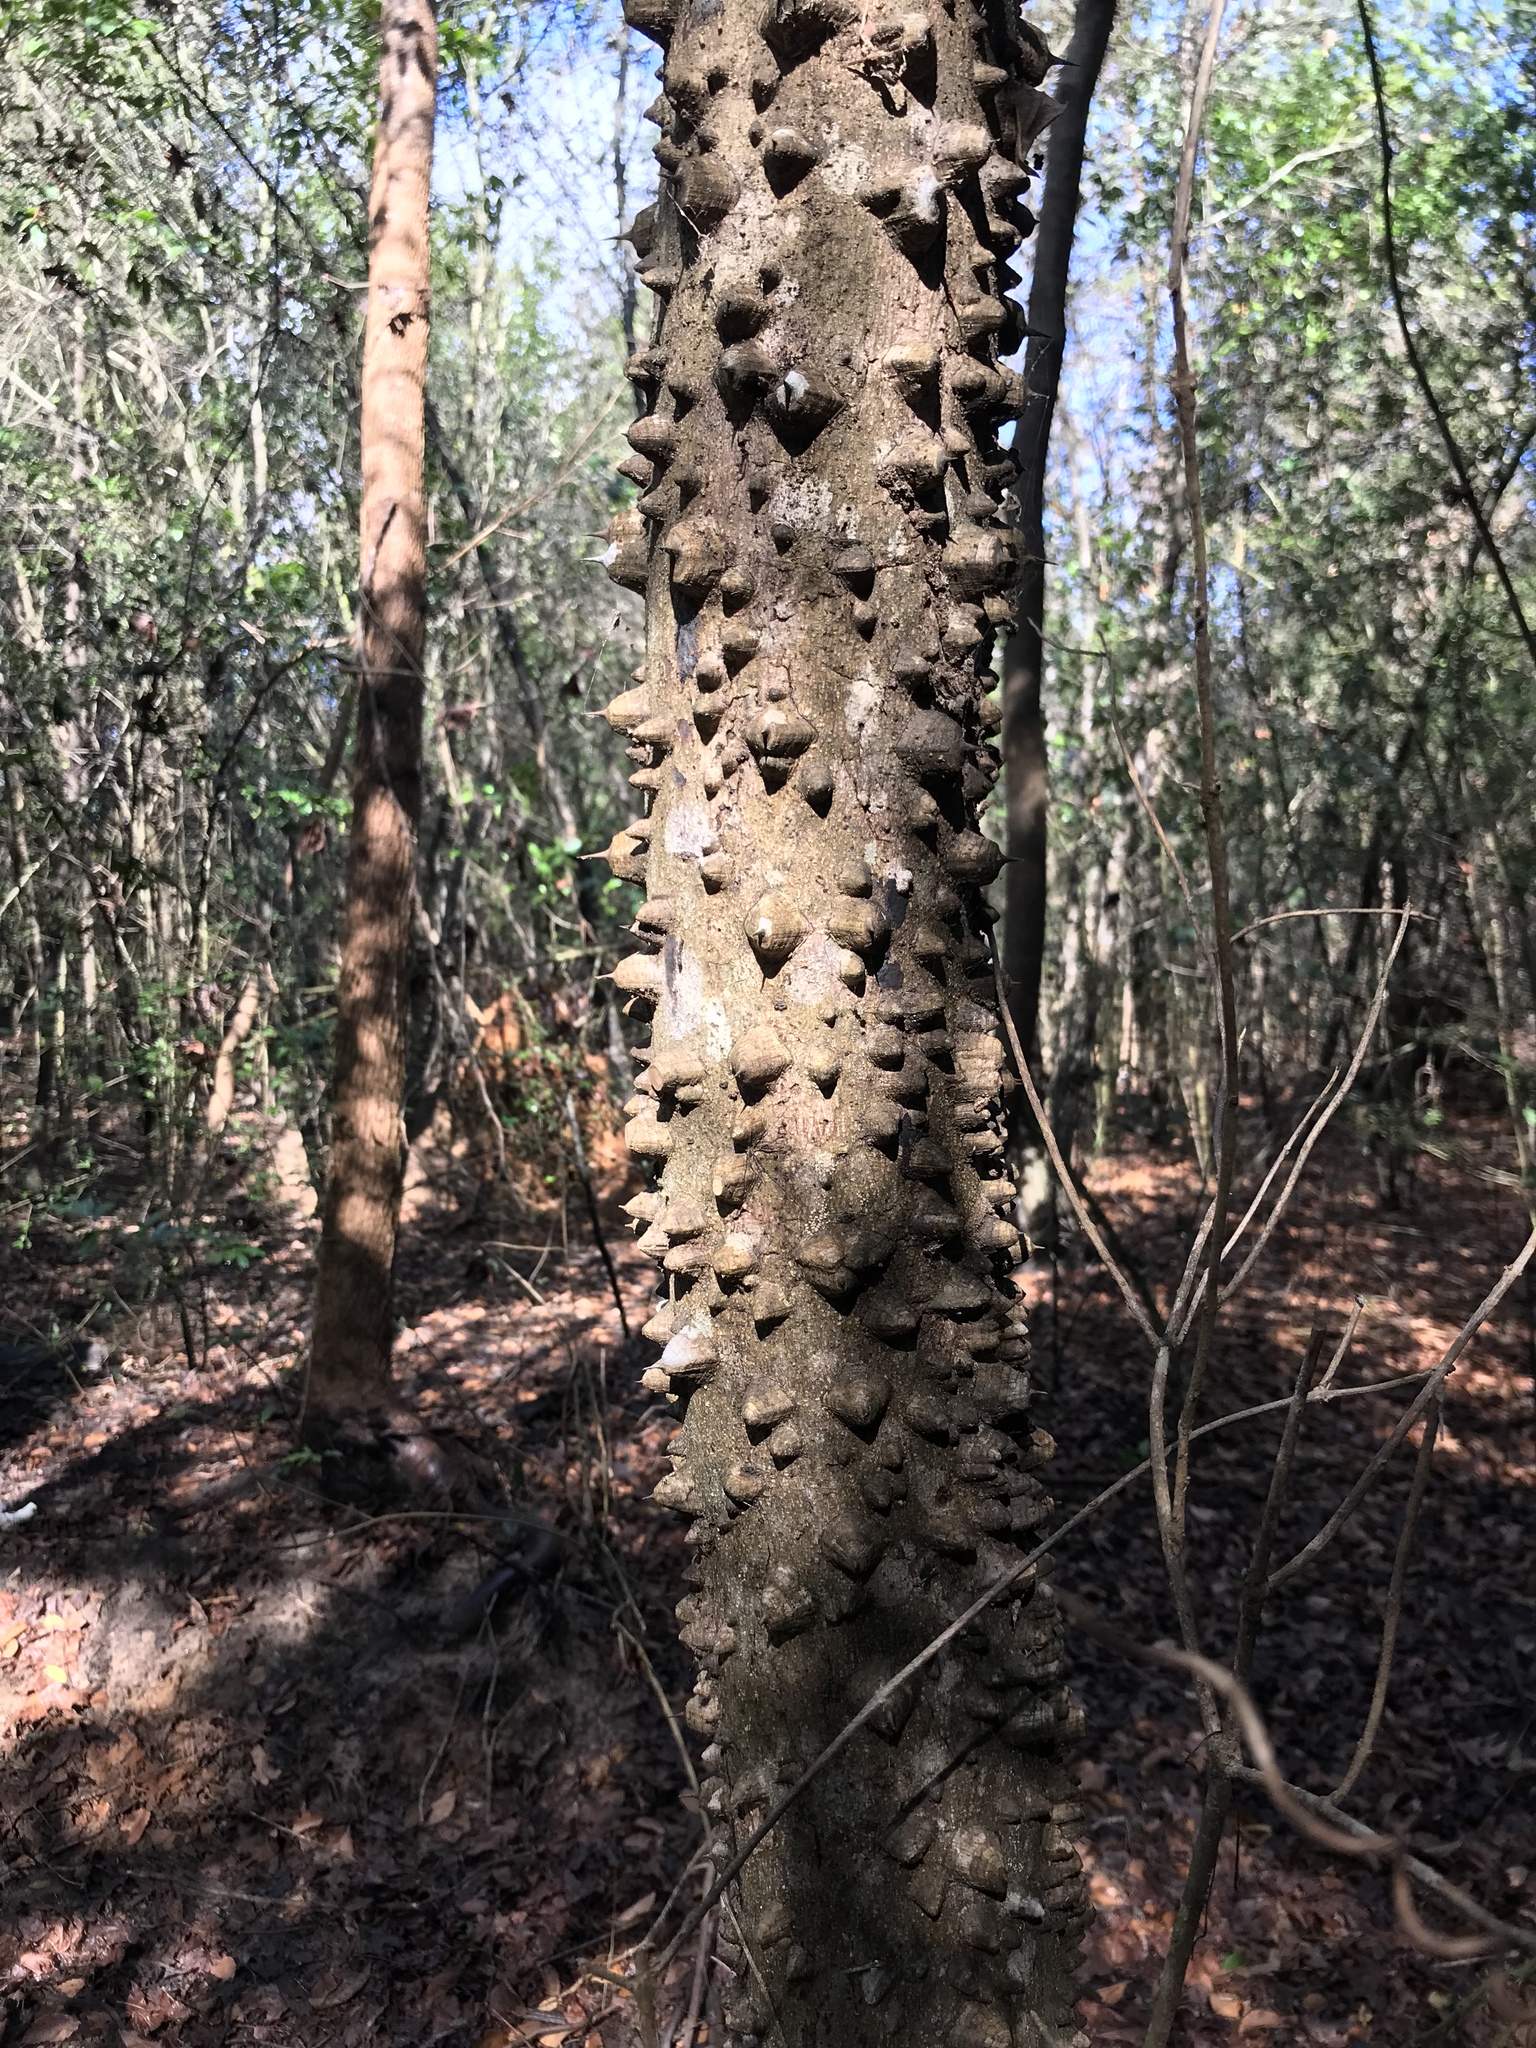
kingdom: Plantae
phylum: Tracheophyta
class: Magnoliopsida
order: Sapindales
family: Rutaceae
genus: Zanthoxylum
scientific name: Zanthoxylum clava-herculis
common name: Hercules'-club
